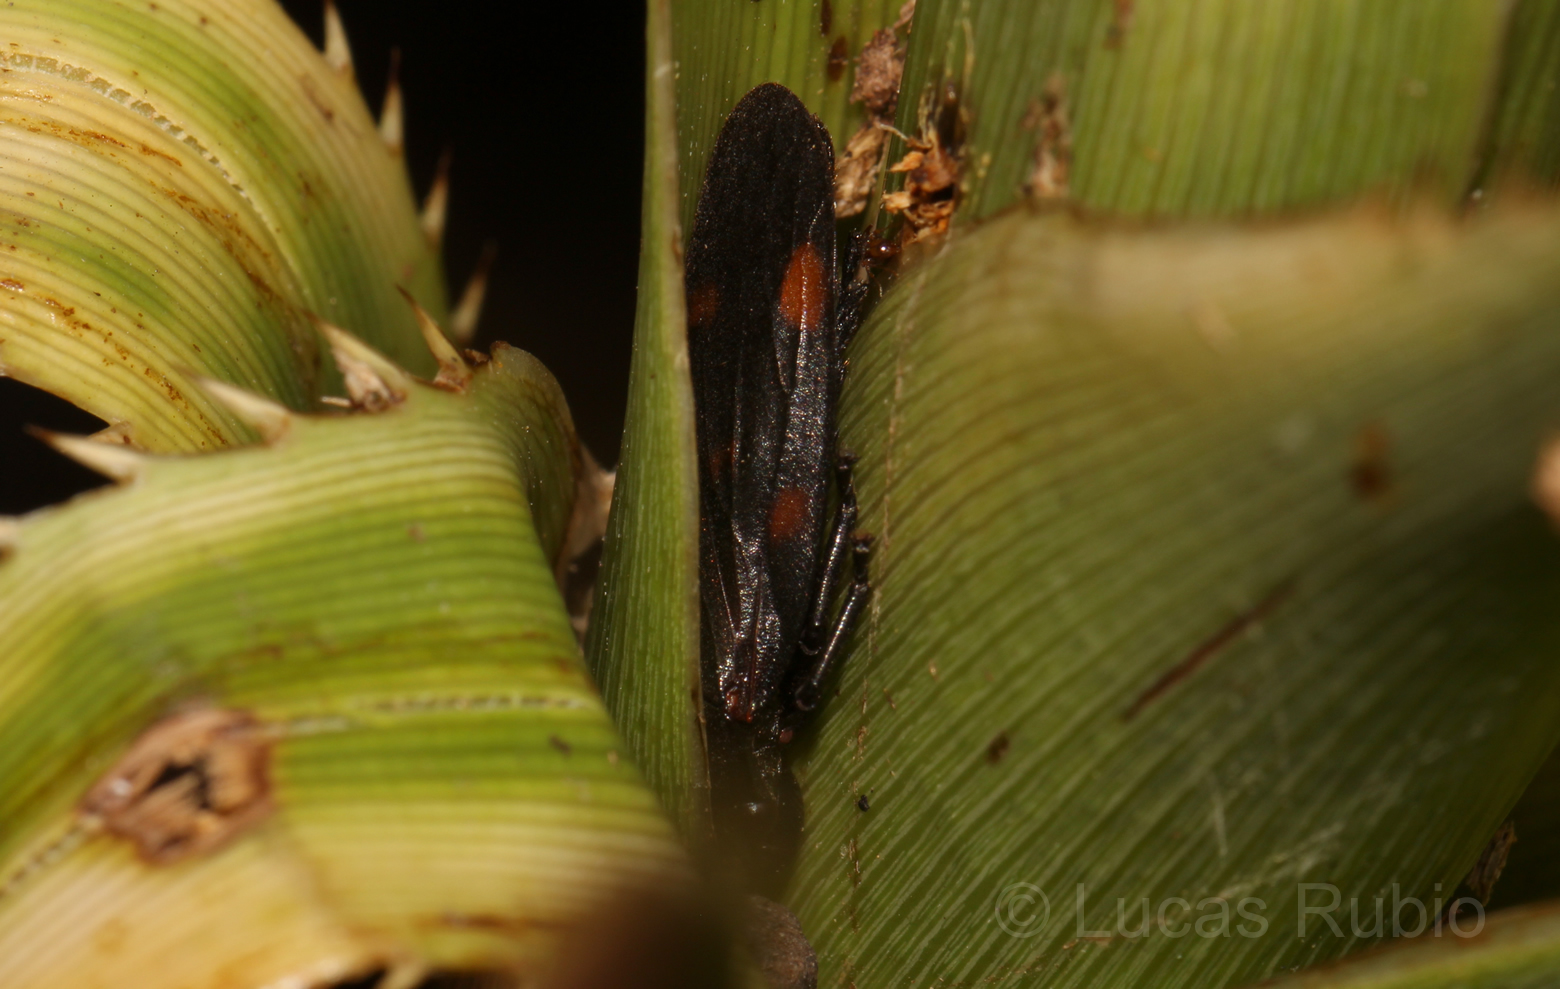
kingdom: Animalia
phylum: Arthropoda
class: Insecta
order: Hemiptera
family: Cercopidae
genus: Kanaima
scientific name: Kanaima fluvialis
